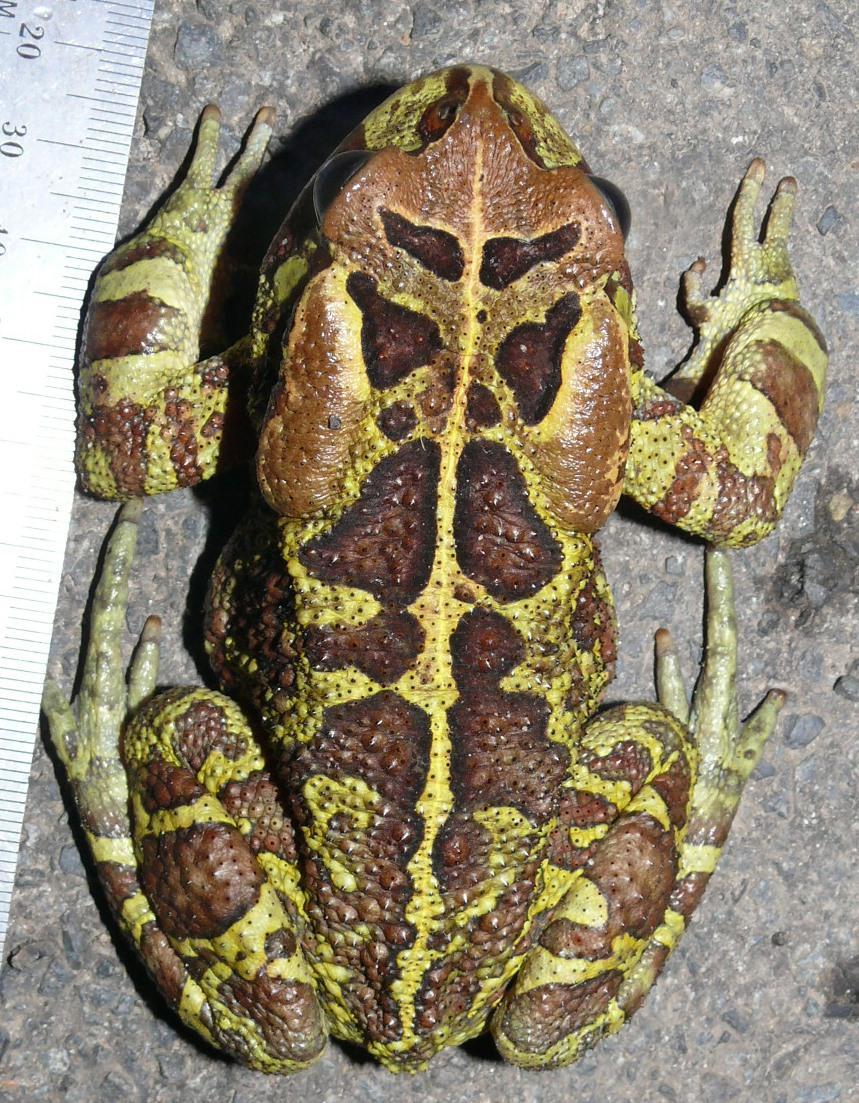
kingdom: Animalia
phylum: Chordata
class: Amphibia
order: Anura
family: Bufonidae
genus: Sclerophrys
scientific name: Sclerophrys pantherina
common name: Panther toad
